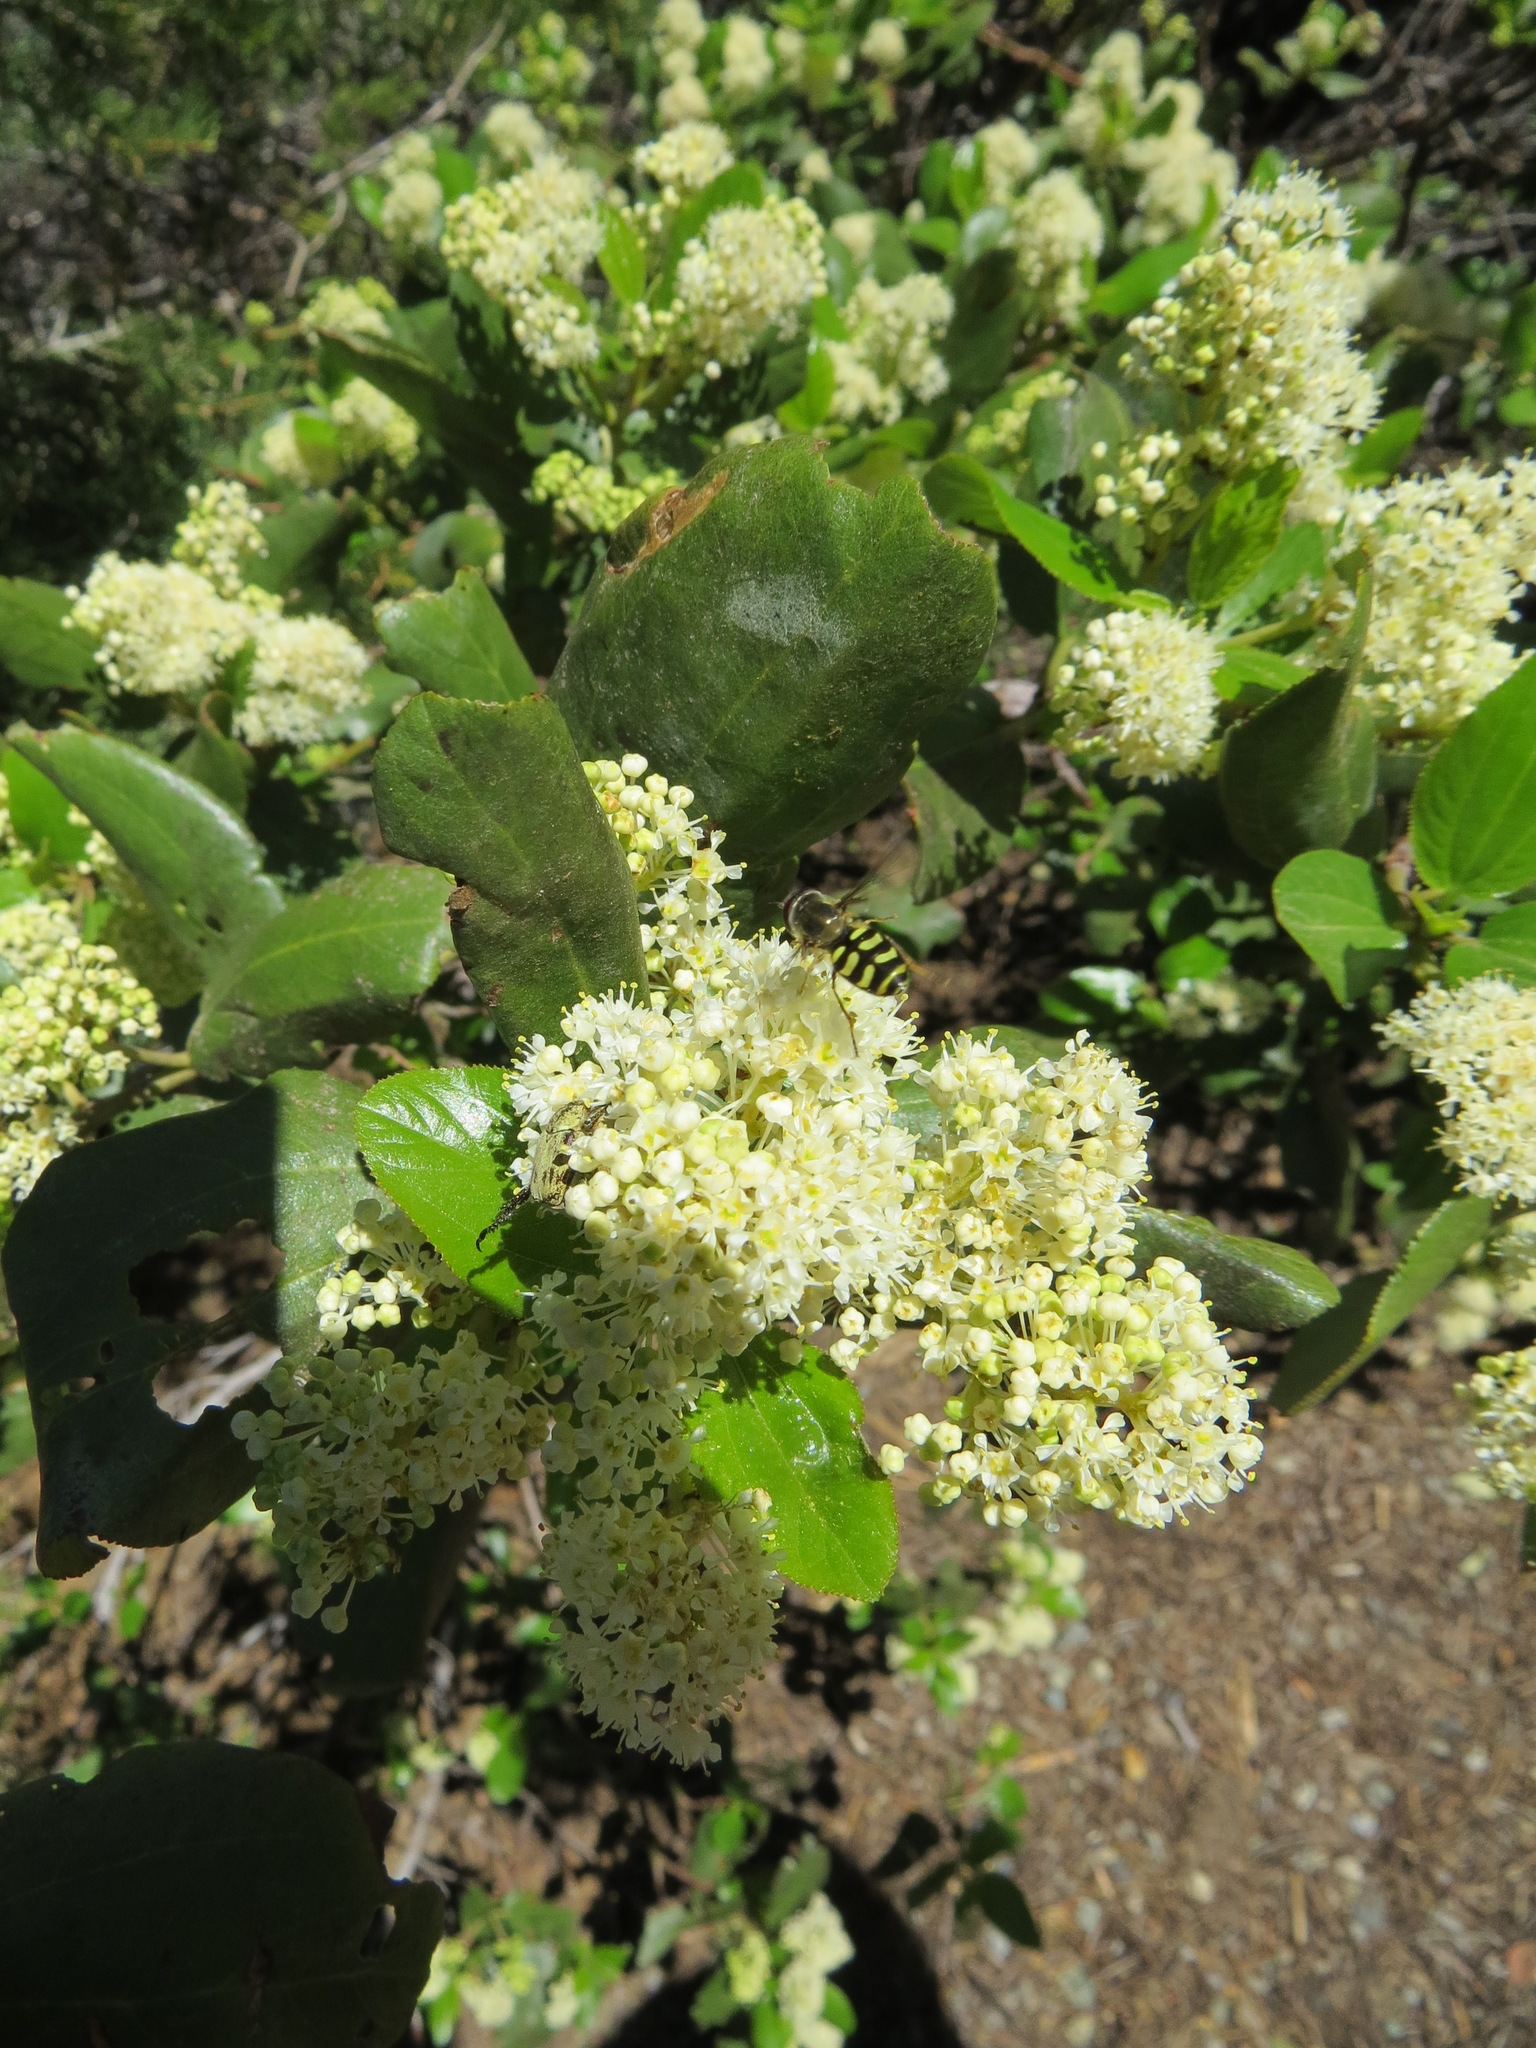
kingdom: Animalia
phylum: Arthropoda
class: Insecta
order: Diptera
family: Syrphidae
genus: Lapposyrphus
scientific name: Lapposyrphus lapponicus
